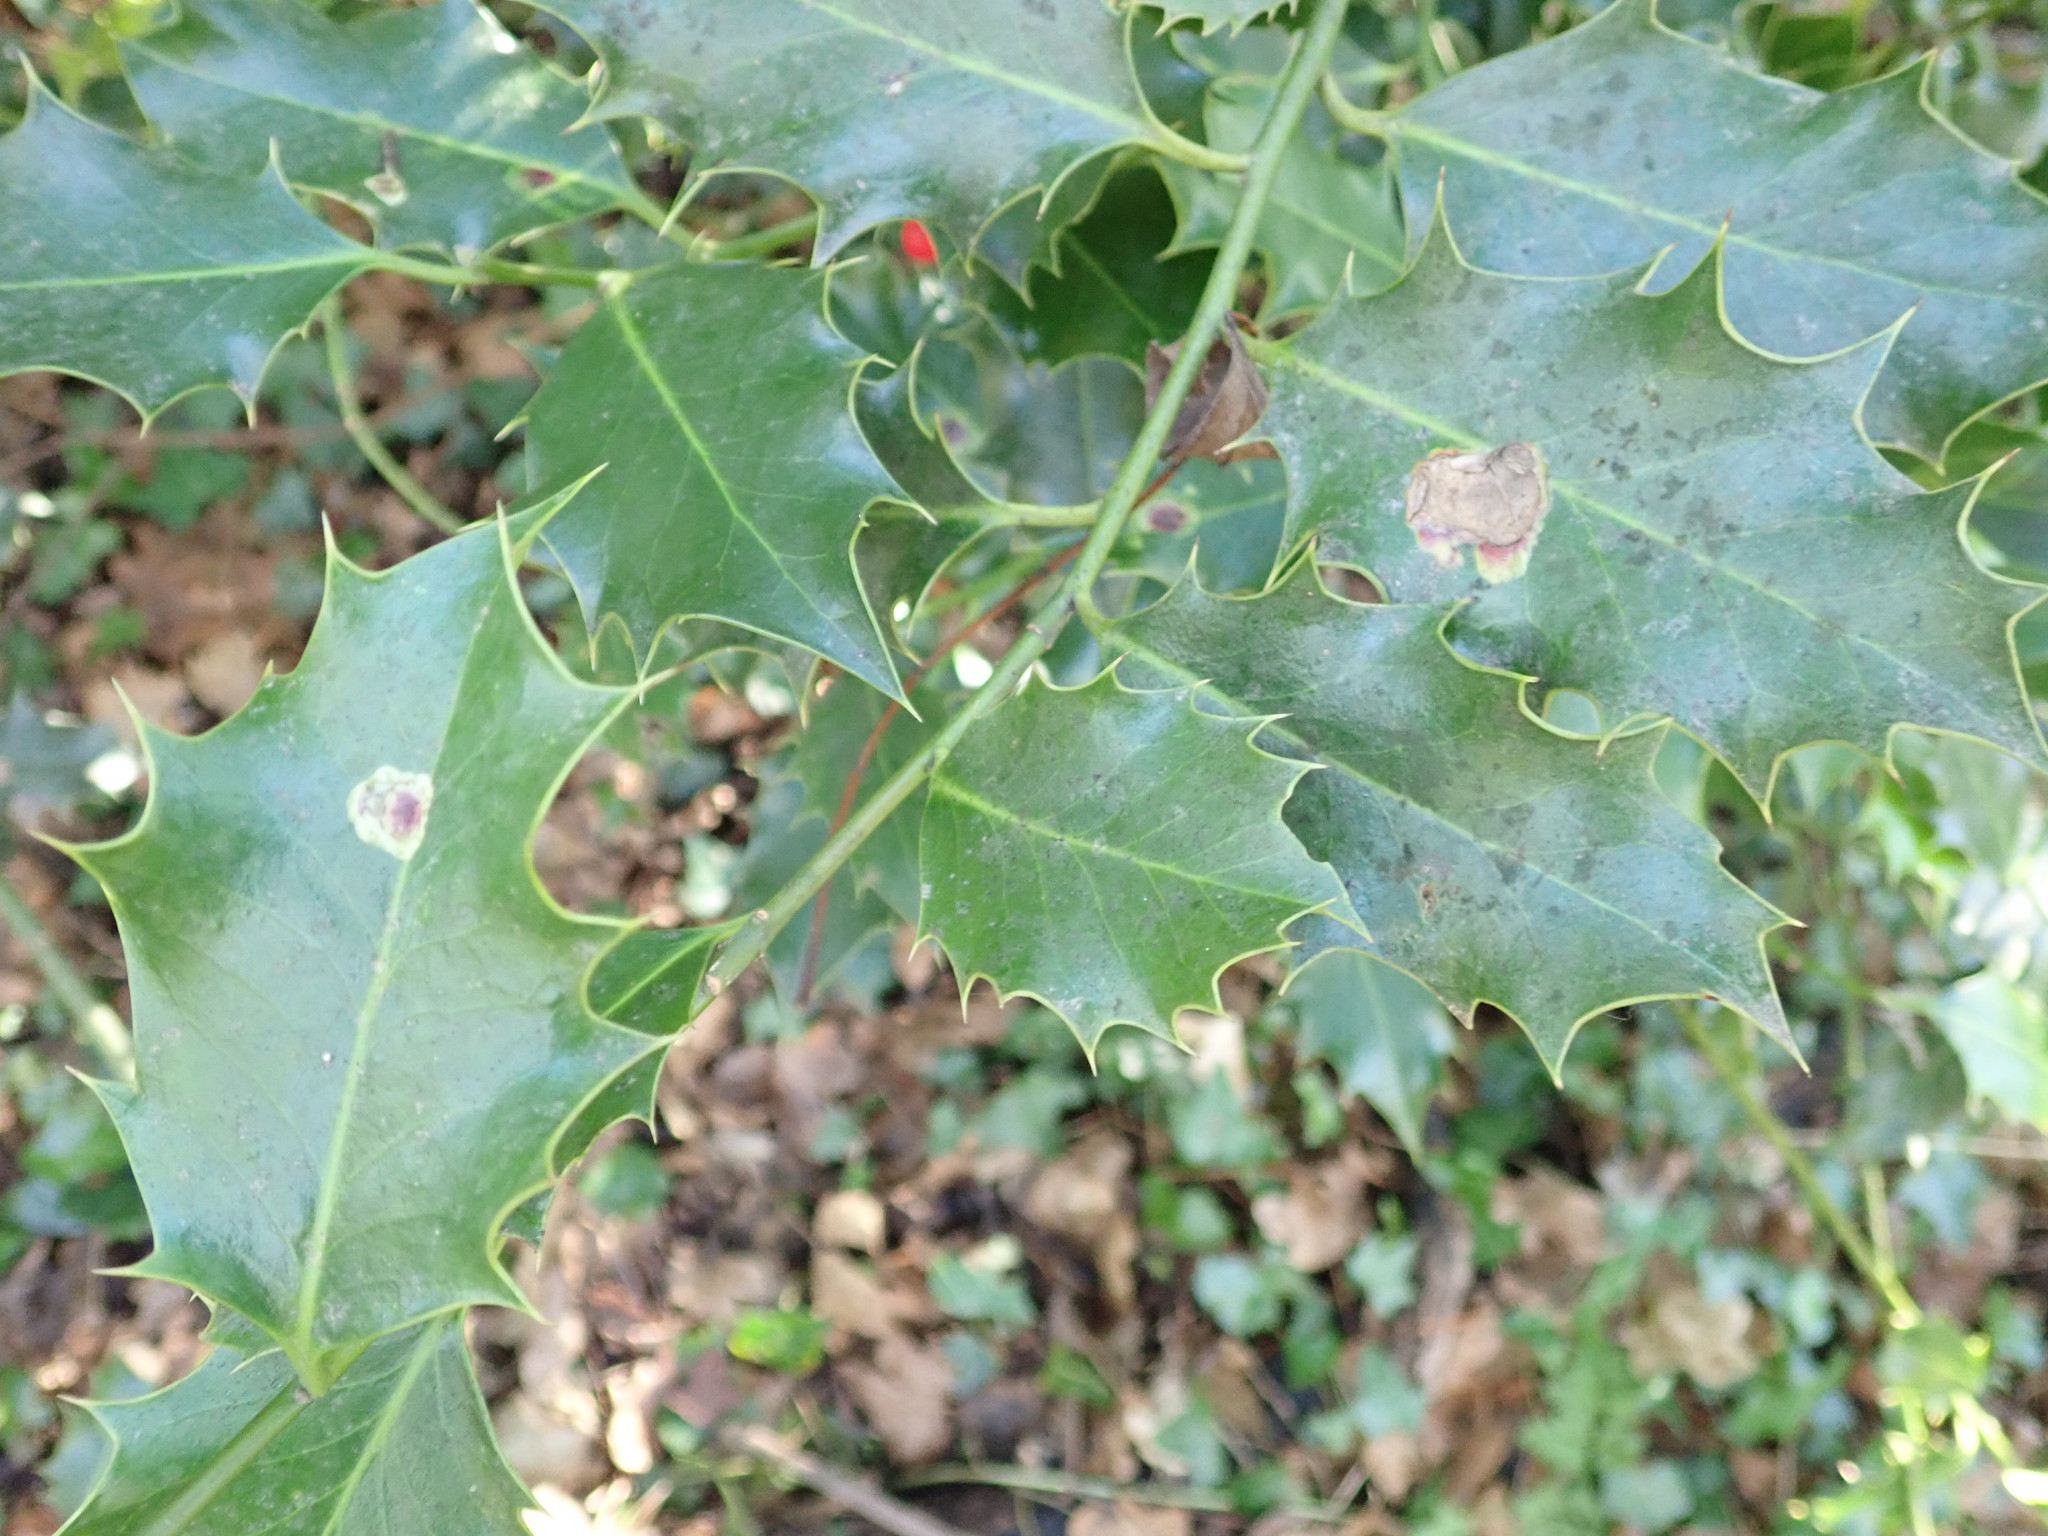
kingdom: Animalia
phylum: Arthropoda
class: Insecta
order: Diptera
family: Agromyzidae
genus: Phytomyza
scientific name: Phytomyza ilicis
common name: Holly leafminer
